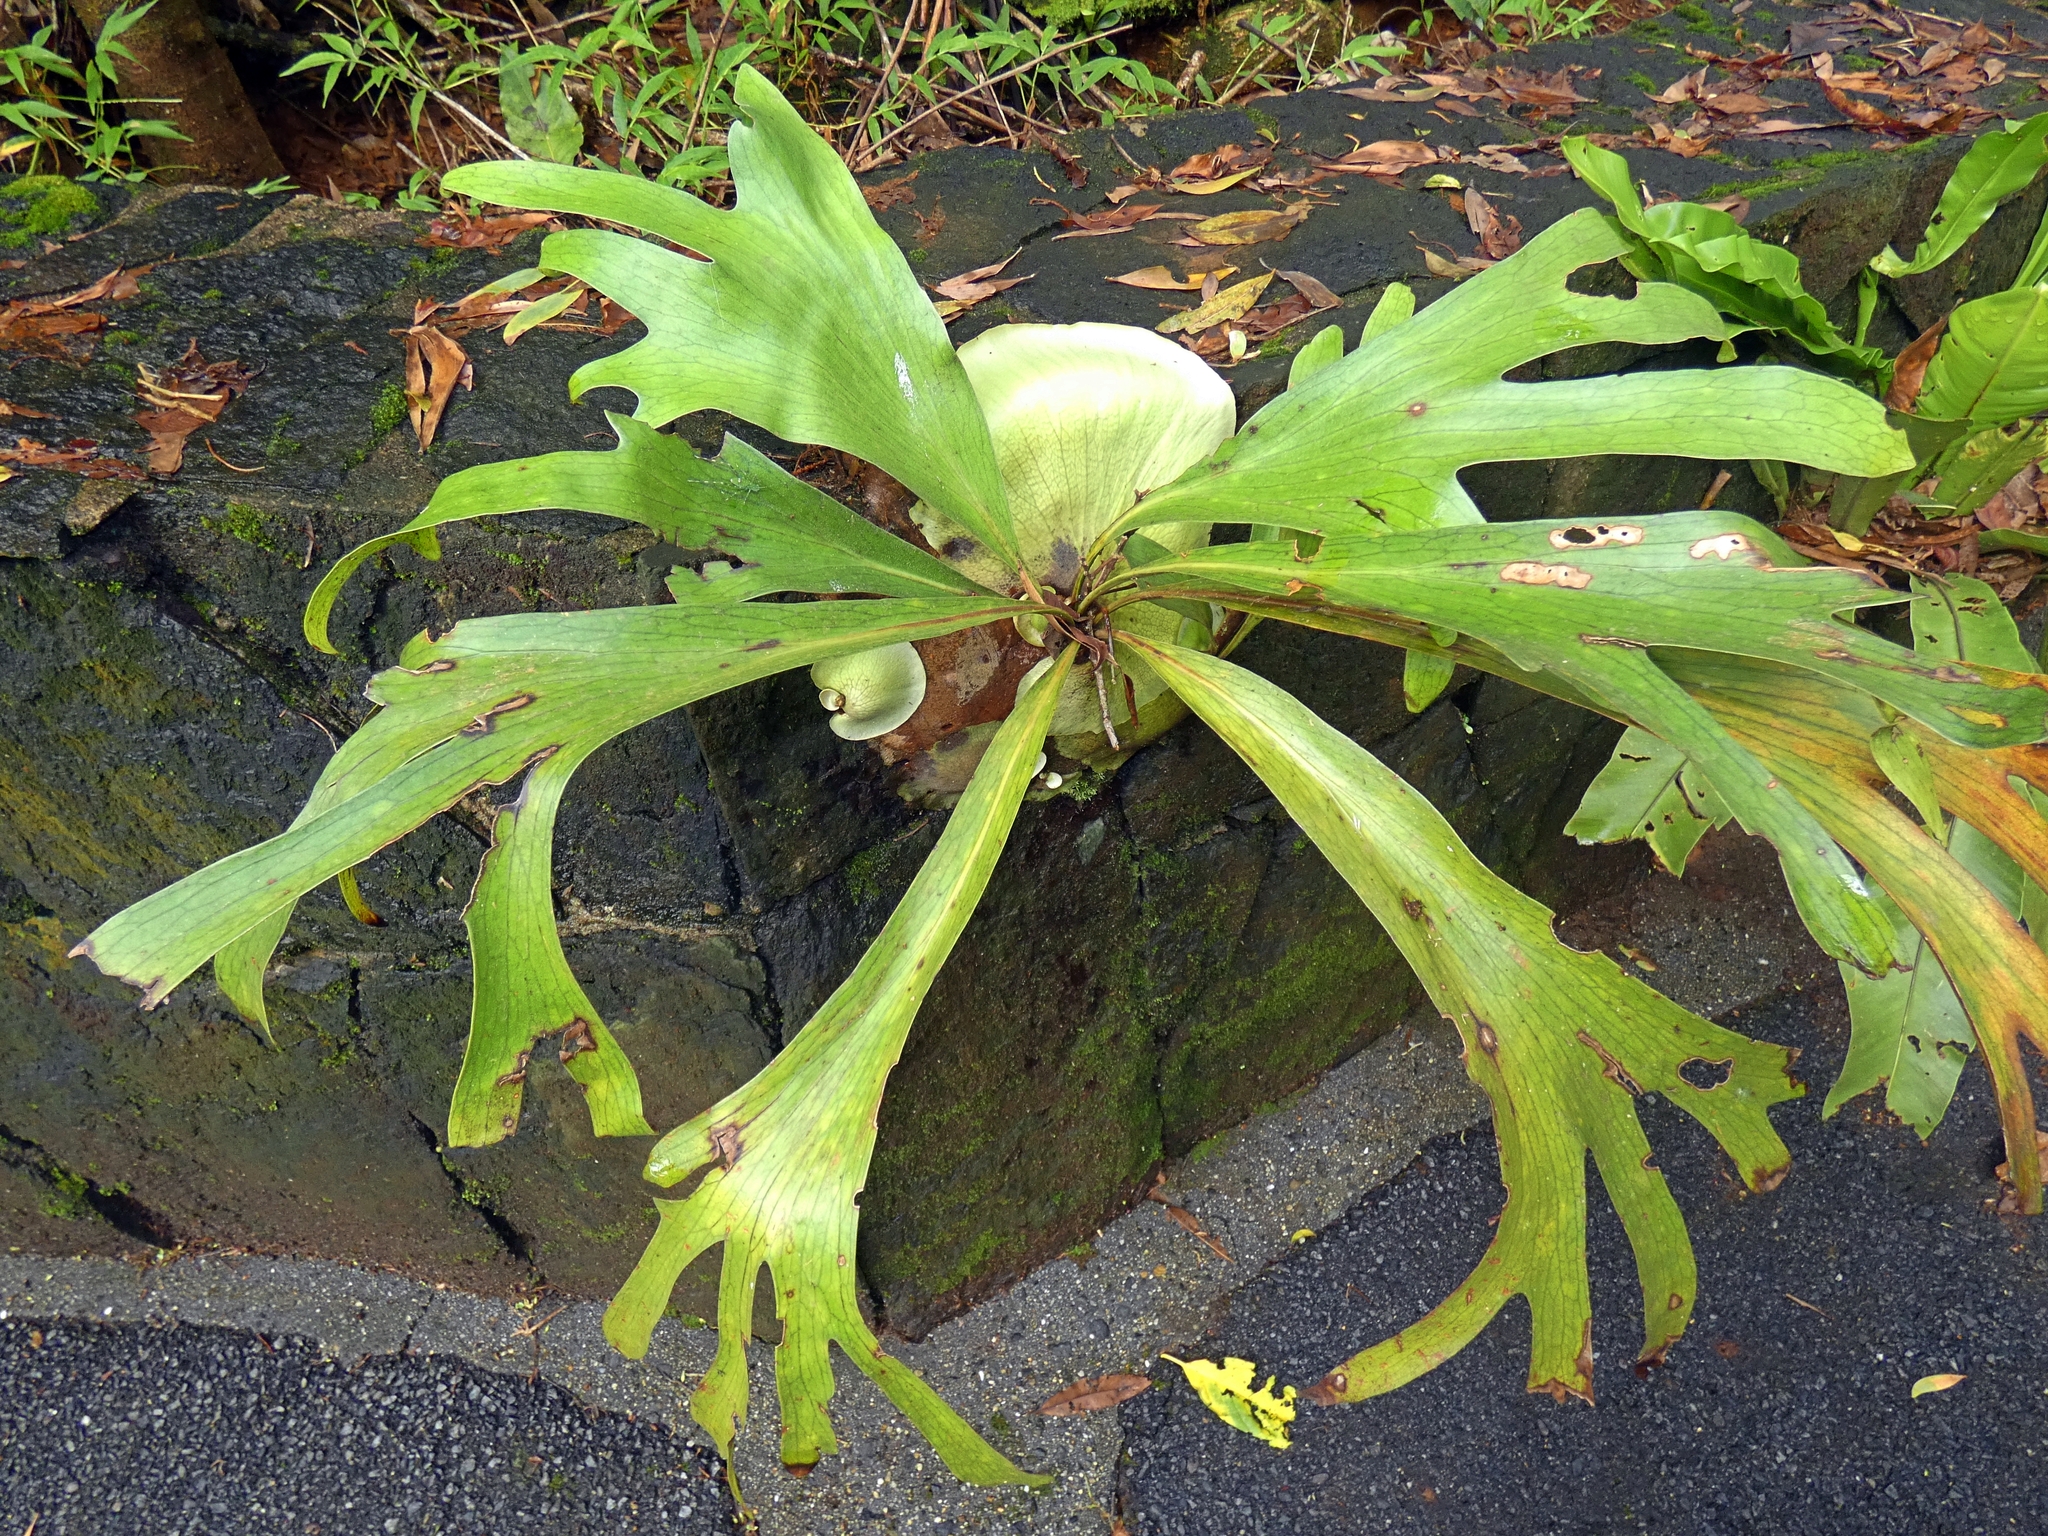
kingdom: Plantae
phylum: Tracheophyta
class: Polypodiopsida
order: Polypodiales
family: Polypodiaceae
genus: Platycerium
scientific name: Platycerium hillii
